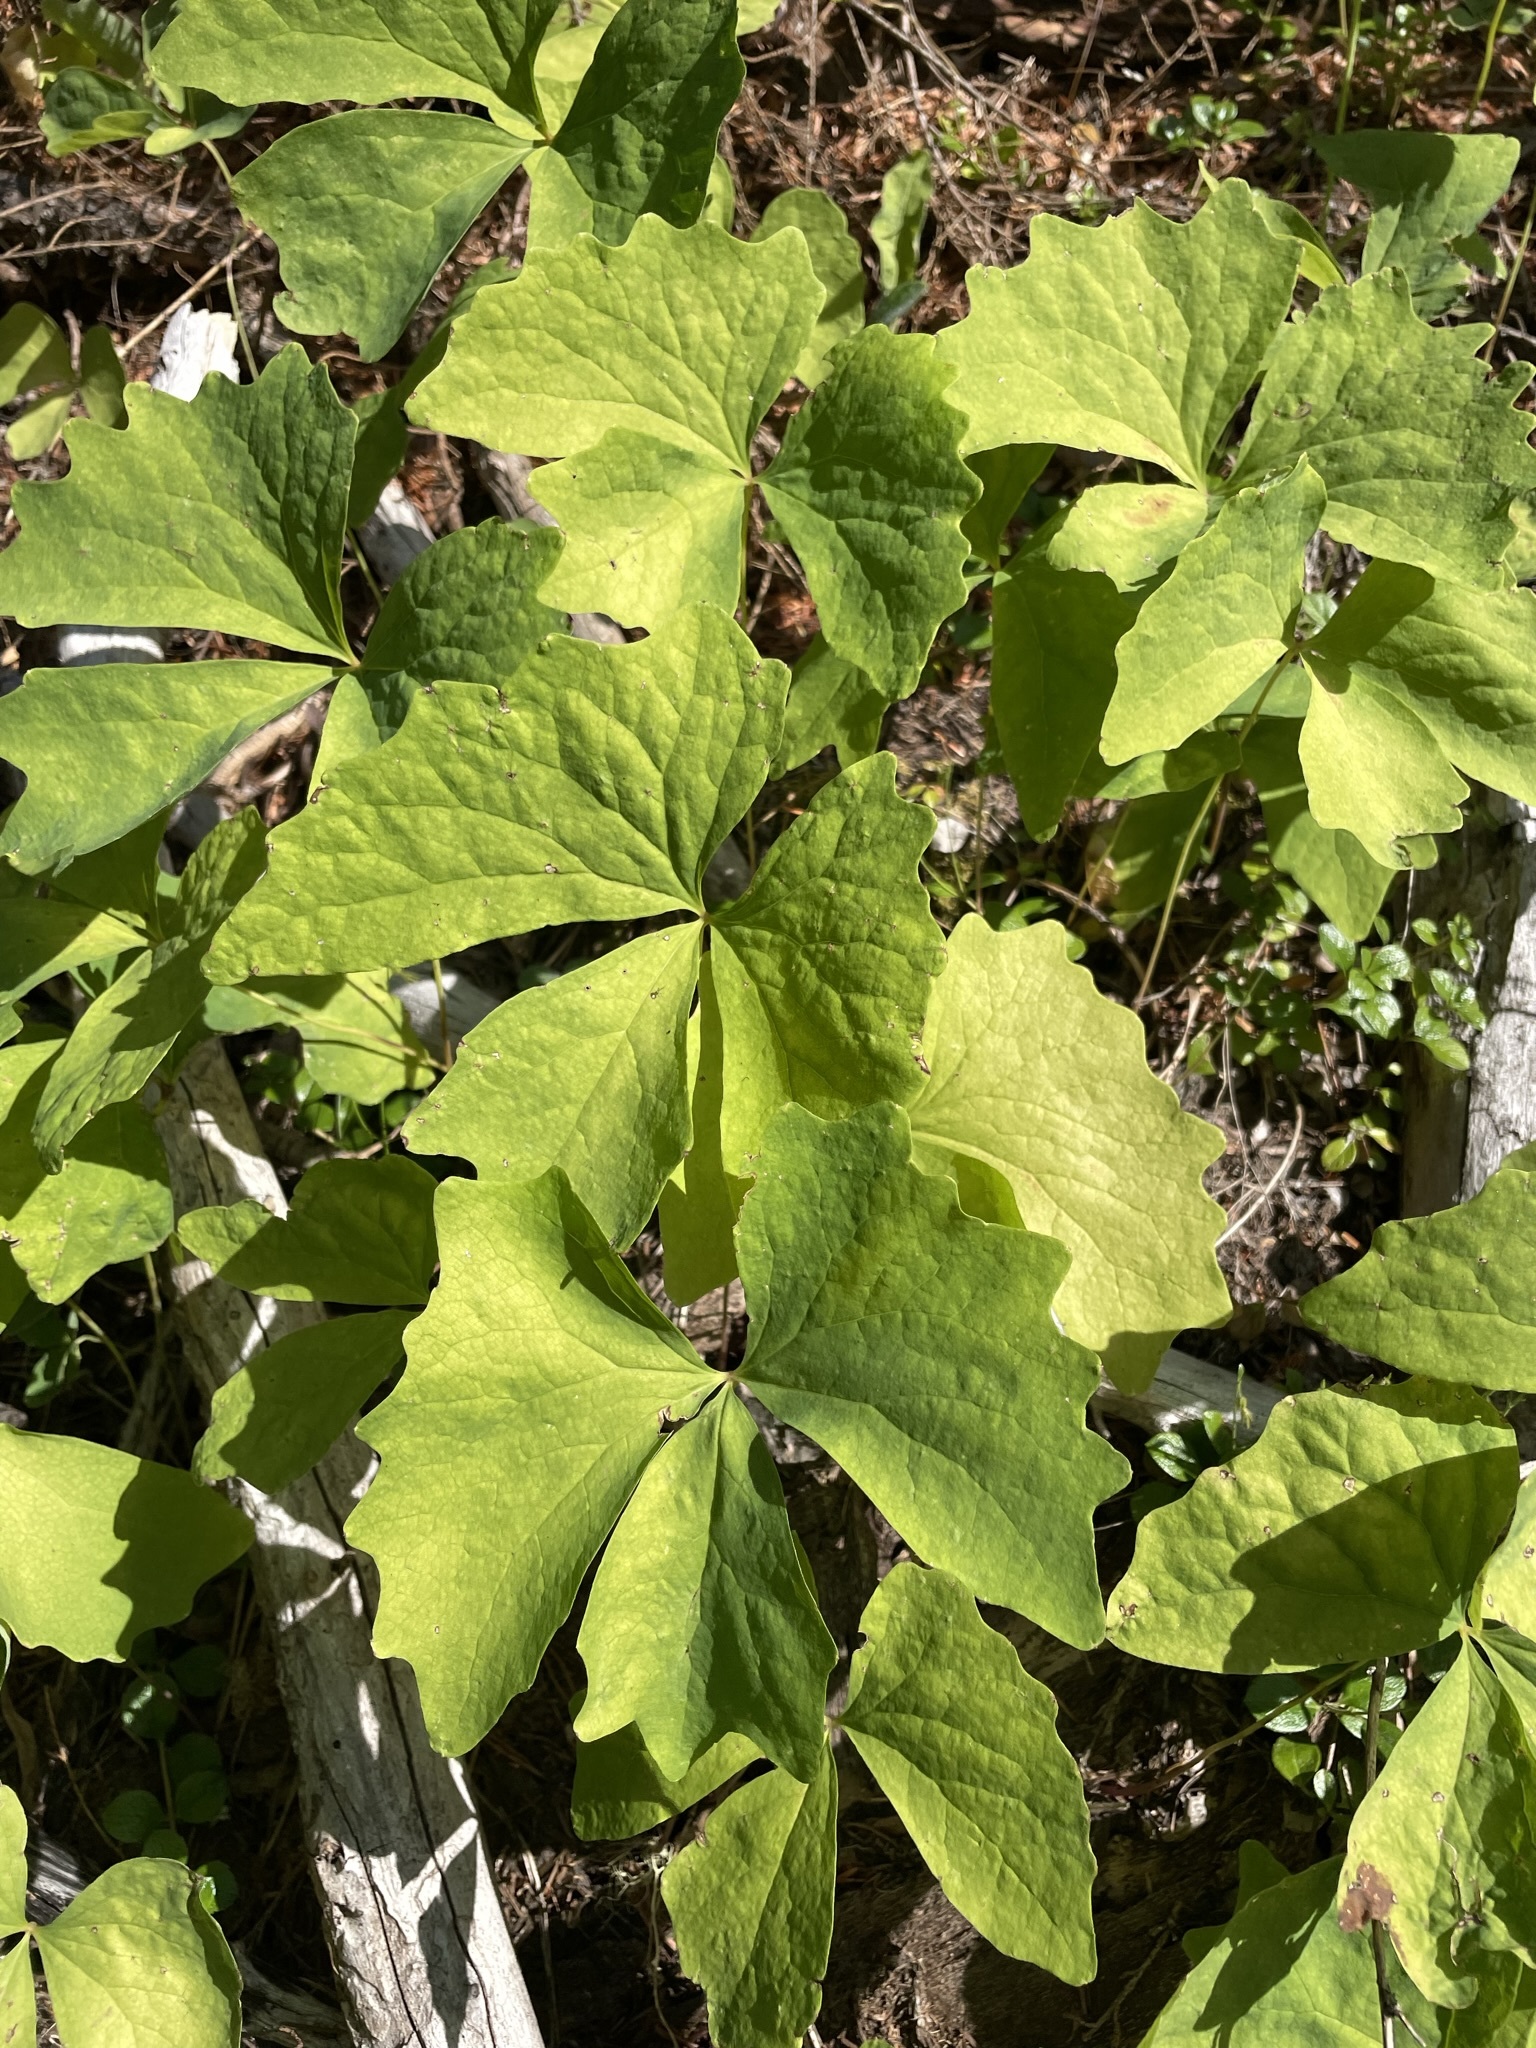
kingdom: Plantae
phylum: Tracheophyta
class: Magnoliopsida
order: Ranunculales
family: Berberidaceae
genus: Achlys
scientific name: Achlys triphylla
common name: Vanilla-leaf
